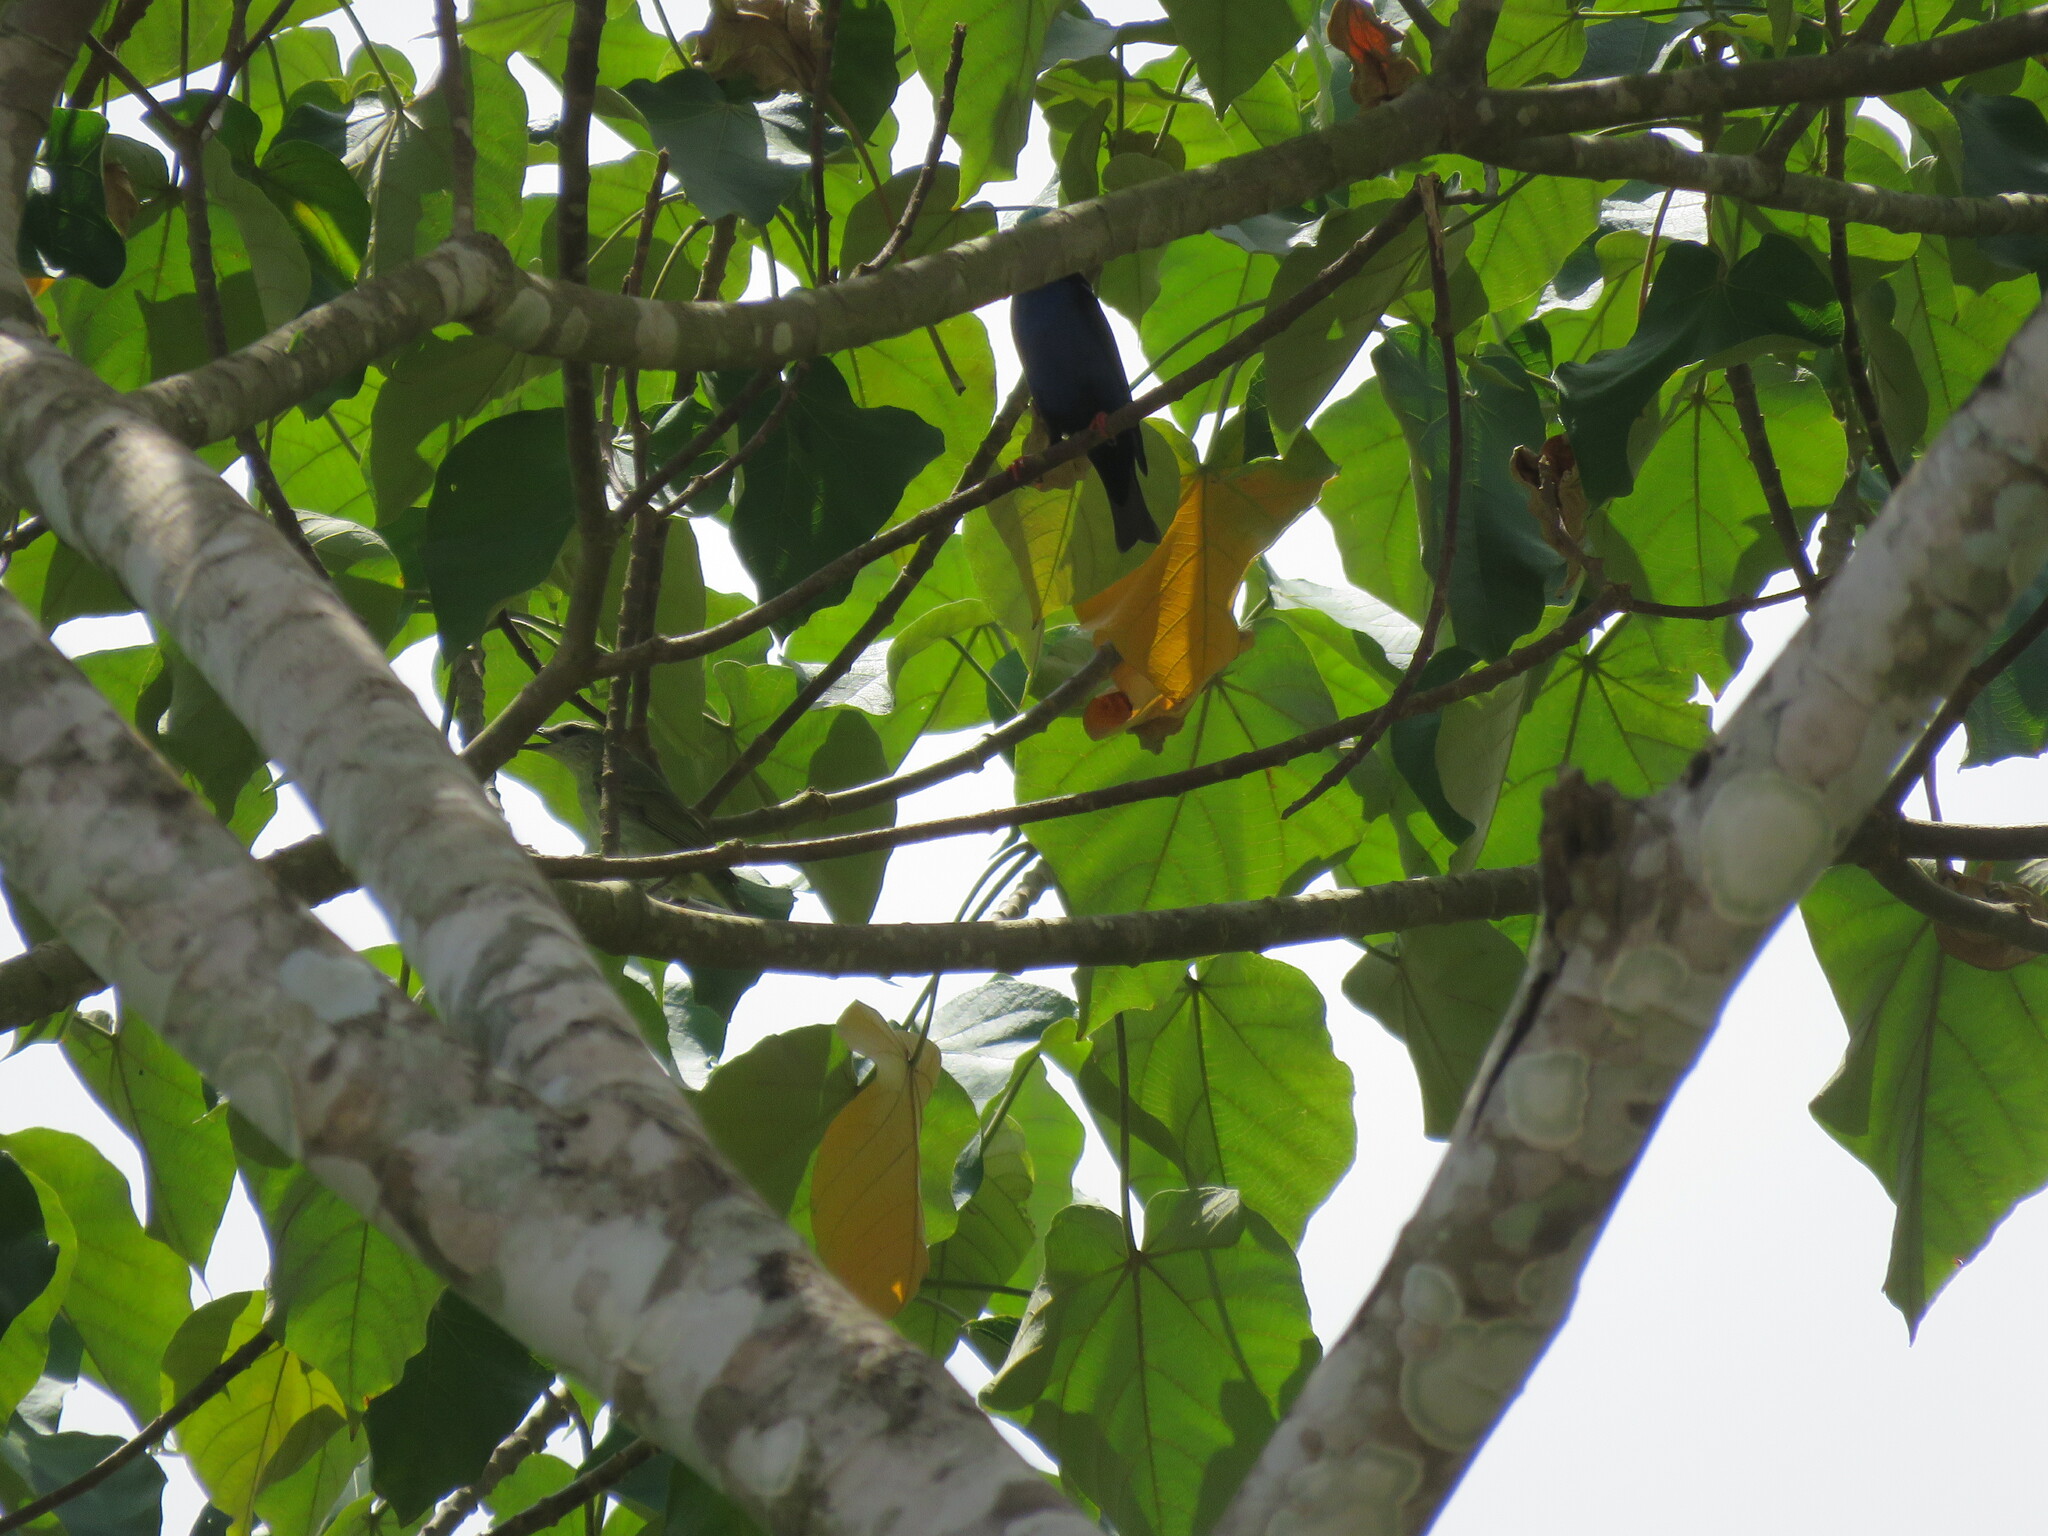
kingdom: Animalia
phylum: Chordata
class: Aves
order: Passeriformes
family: Thraupidae
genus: Cyanerpes
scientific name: Cyanerpes cyaneus
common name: Red-legged honeycreeper
